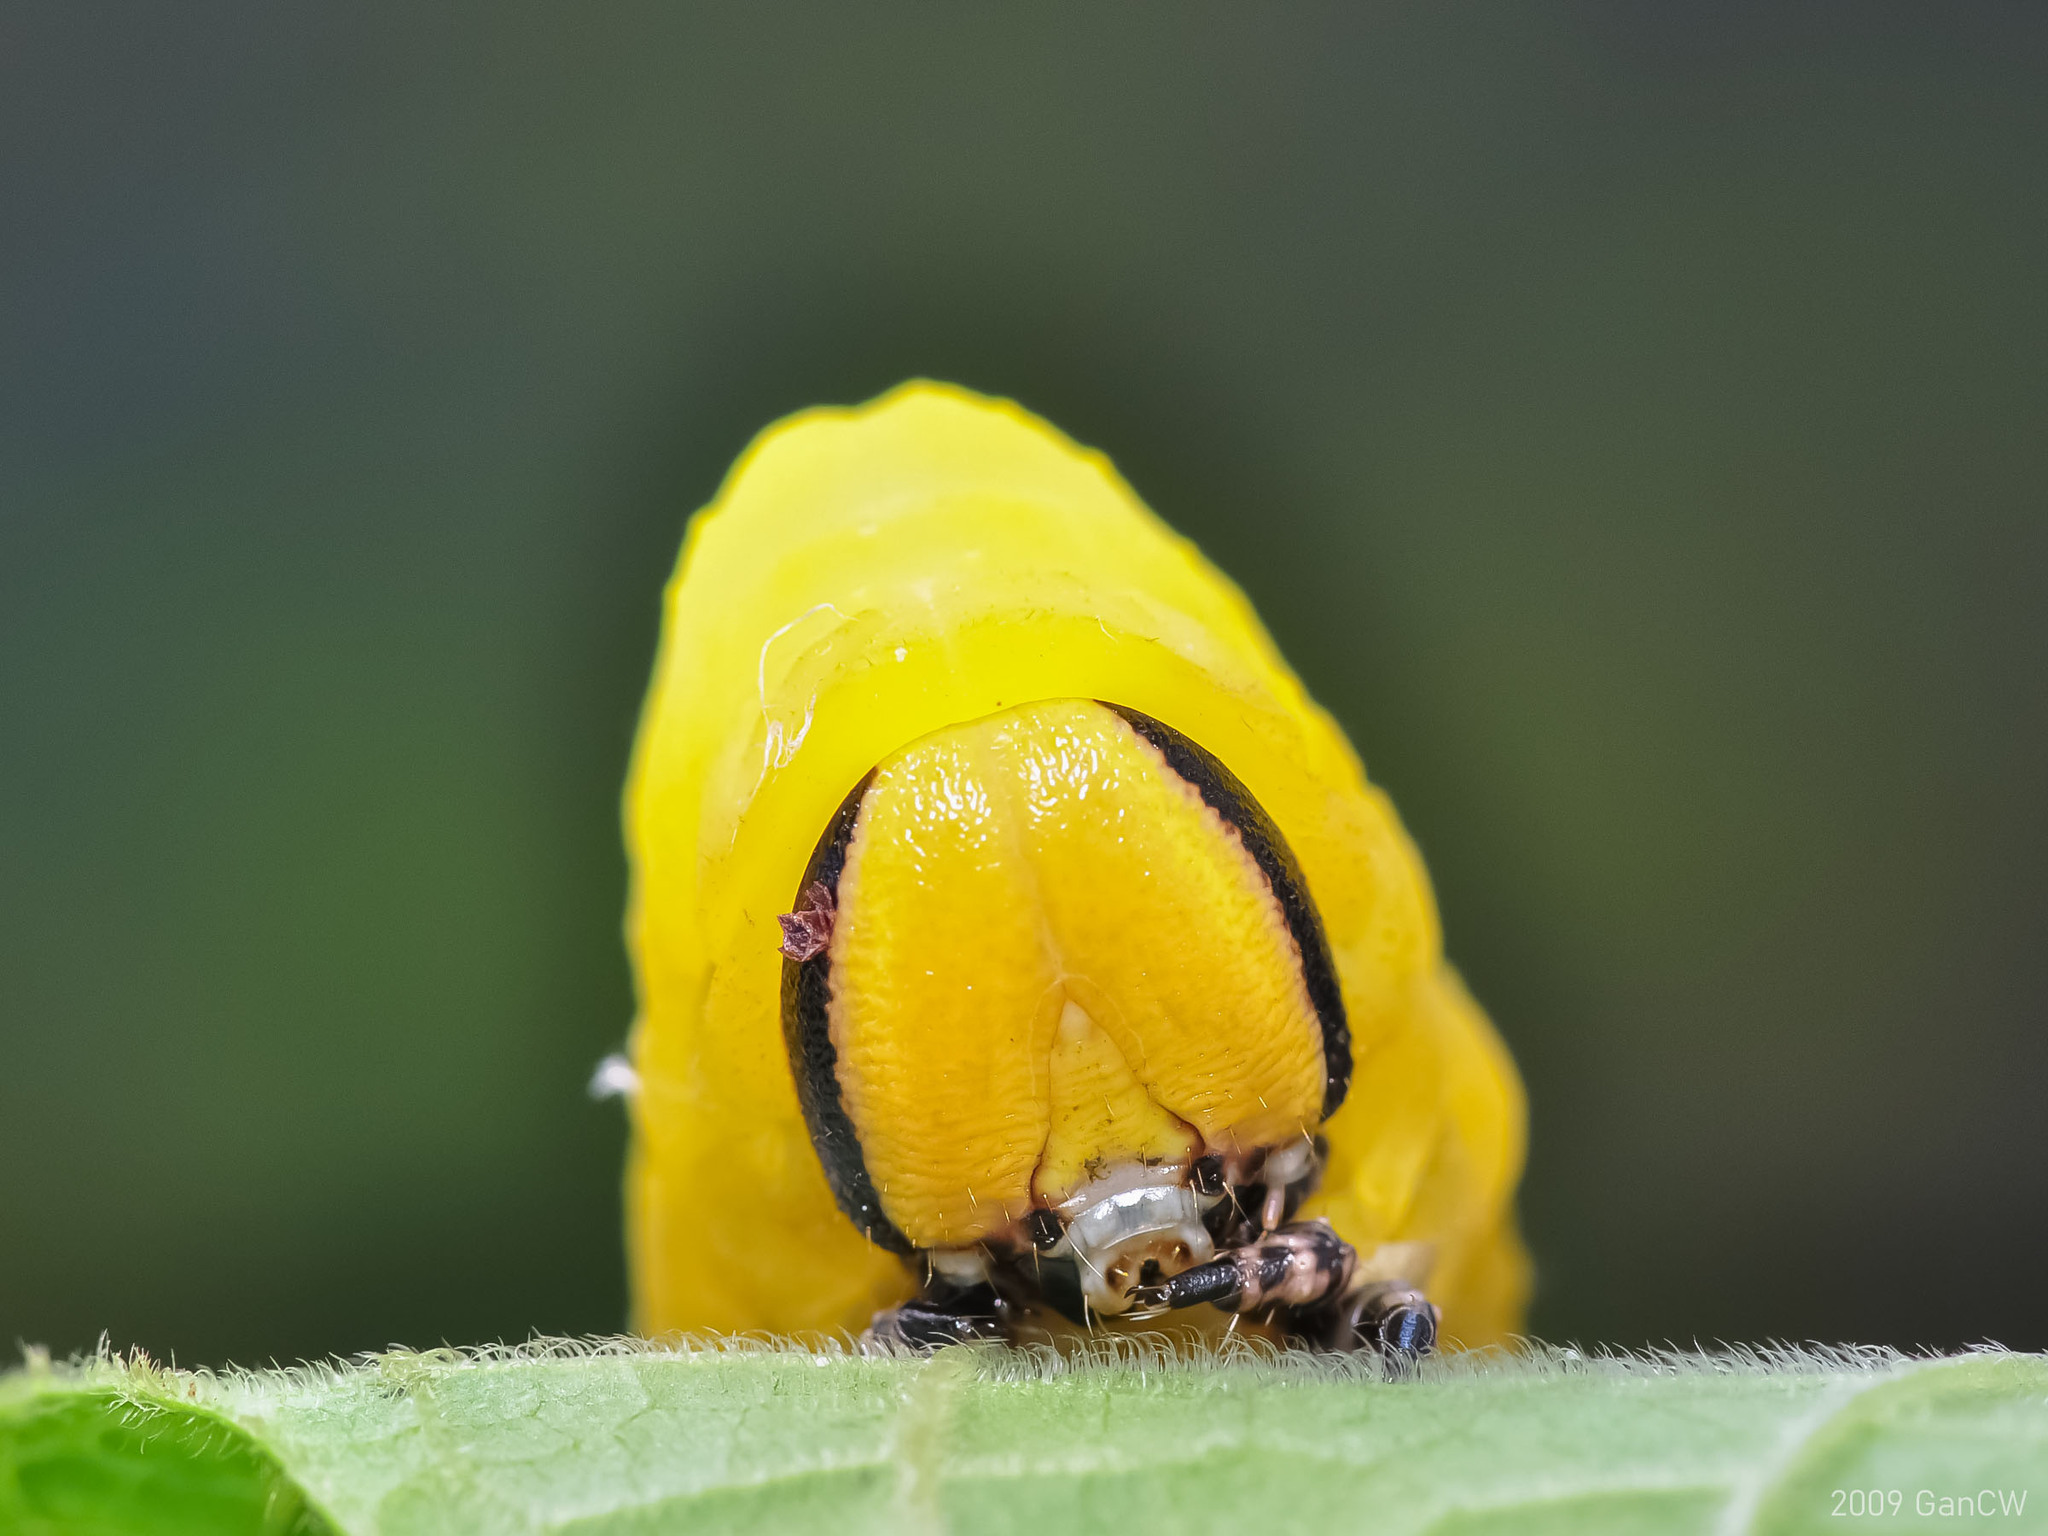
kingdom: Animalia
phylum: Arthropoda
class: Insecta
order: Lepidoptera
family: Sphingidae
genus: Acherontia
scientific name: Acherontia lachesis
